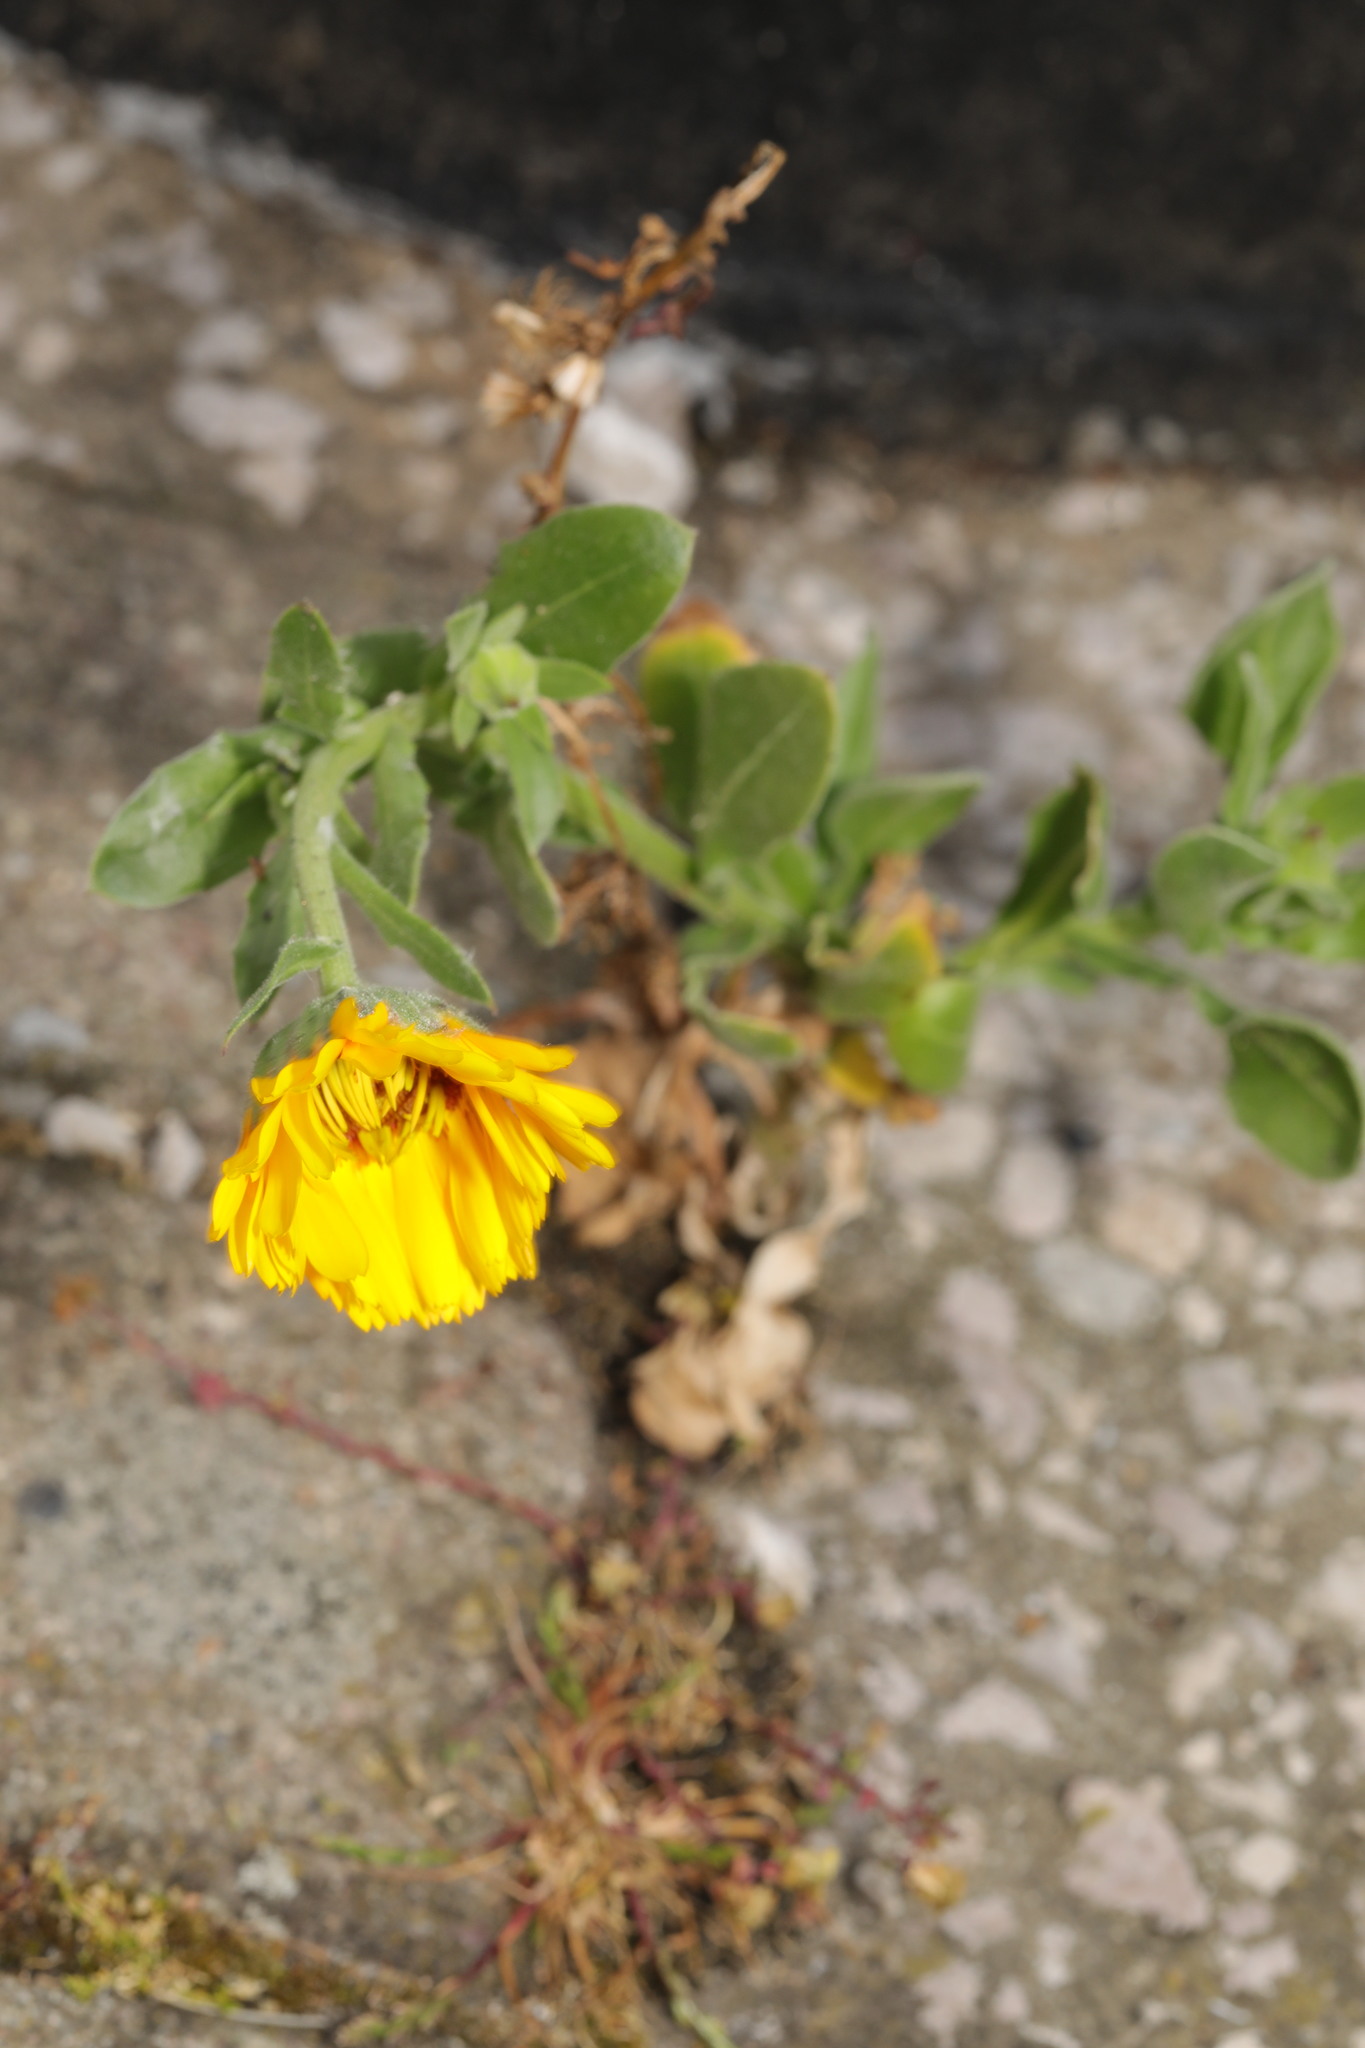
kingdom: Plantae
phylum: Tracheophyta
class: Magnoliopsida
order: Asterales
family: Asteraceae
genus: Calendula
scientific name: Calendula officinalis
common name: Pot marigold
